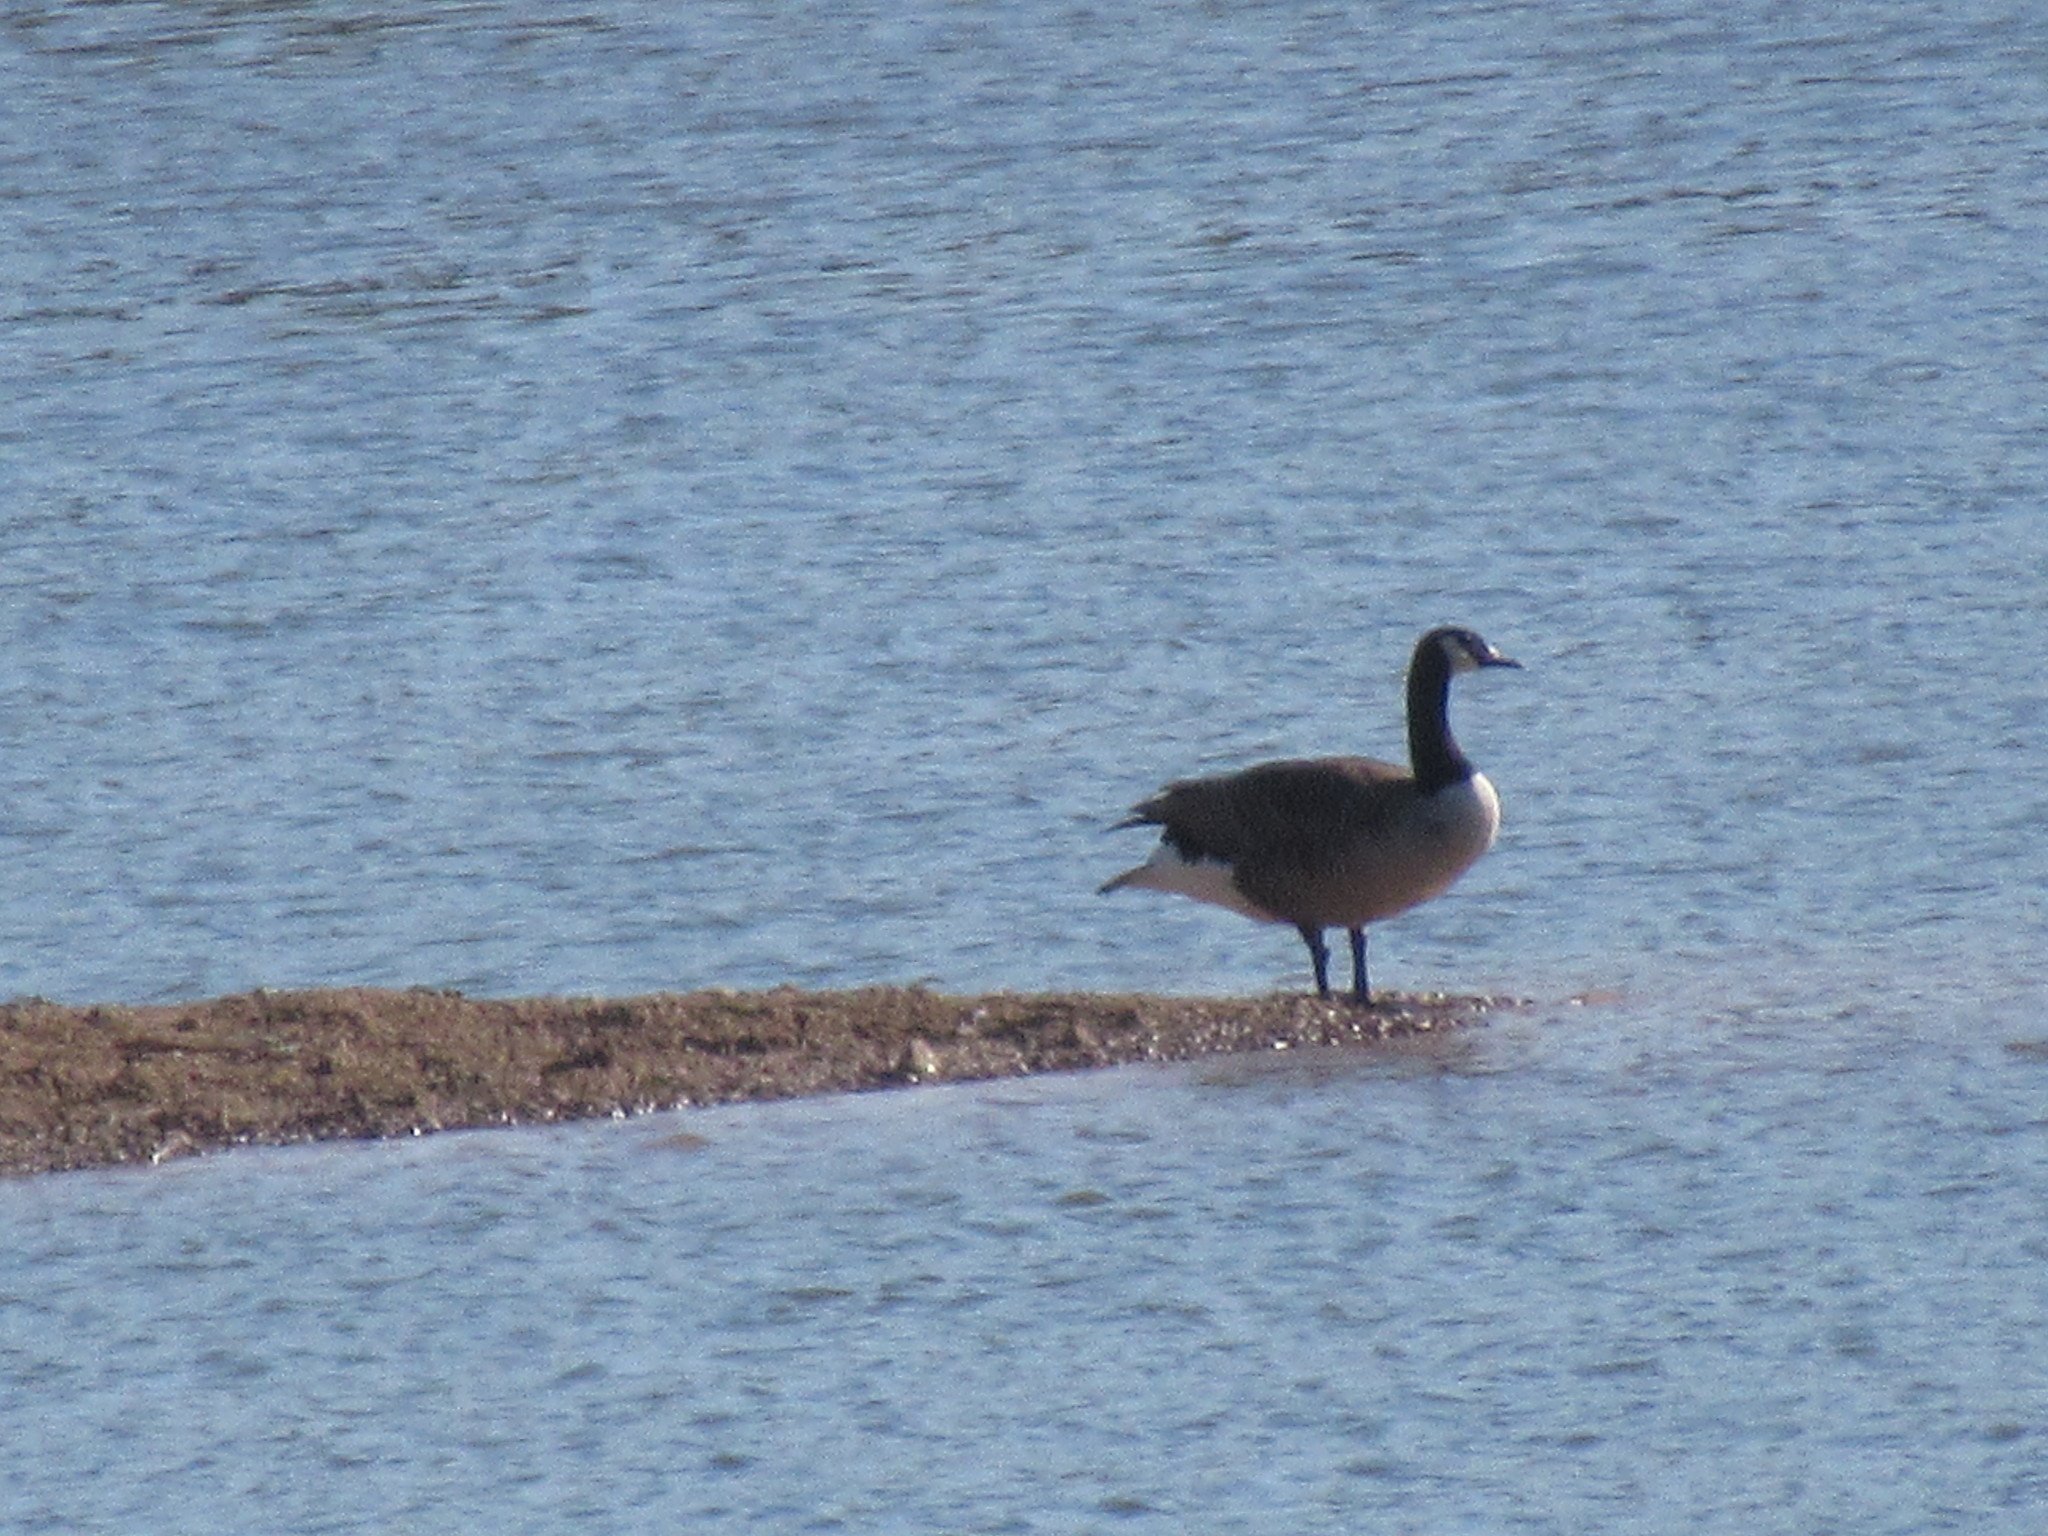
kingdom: Animalia
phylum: Chordata
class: Aves
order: Anseriformes
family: Anatidae
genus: Branta
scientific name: Branta canadensis
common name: Canada goose
